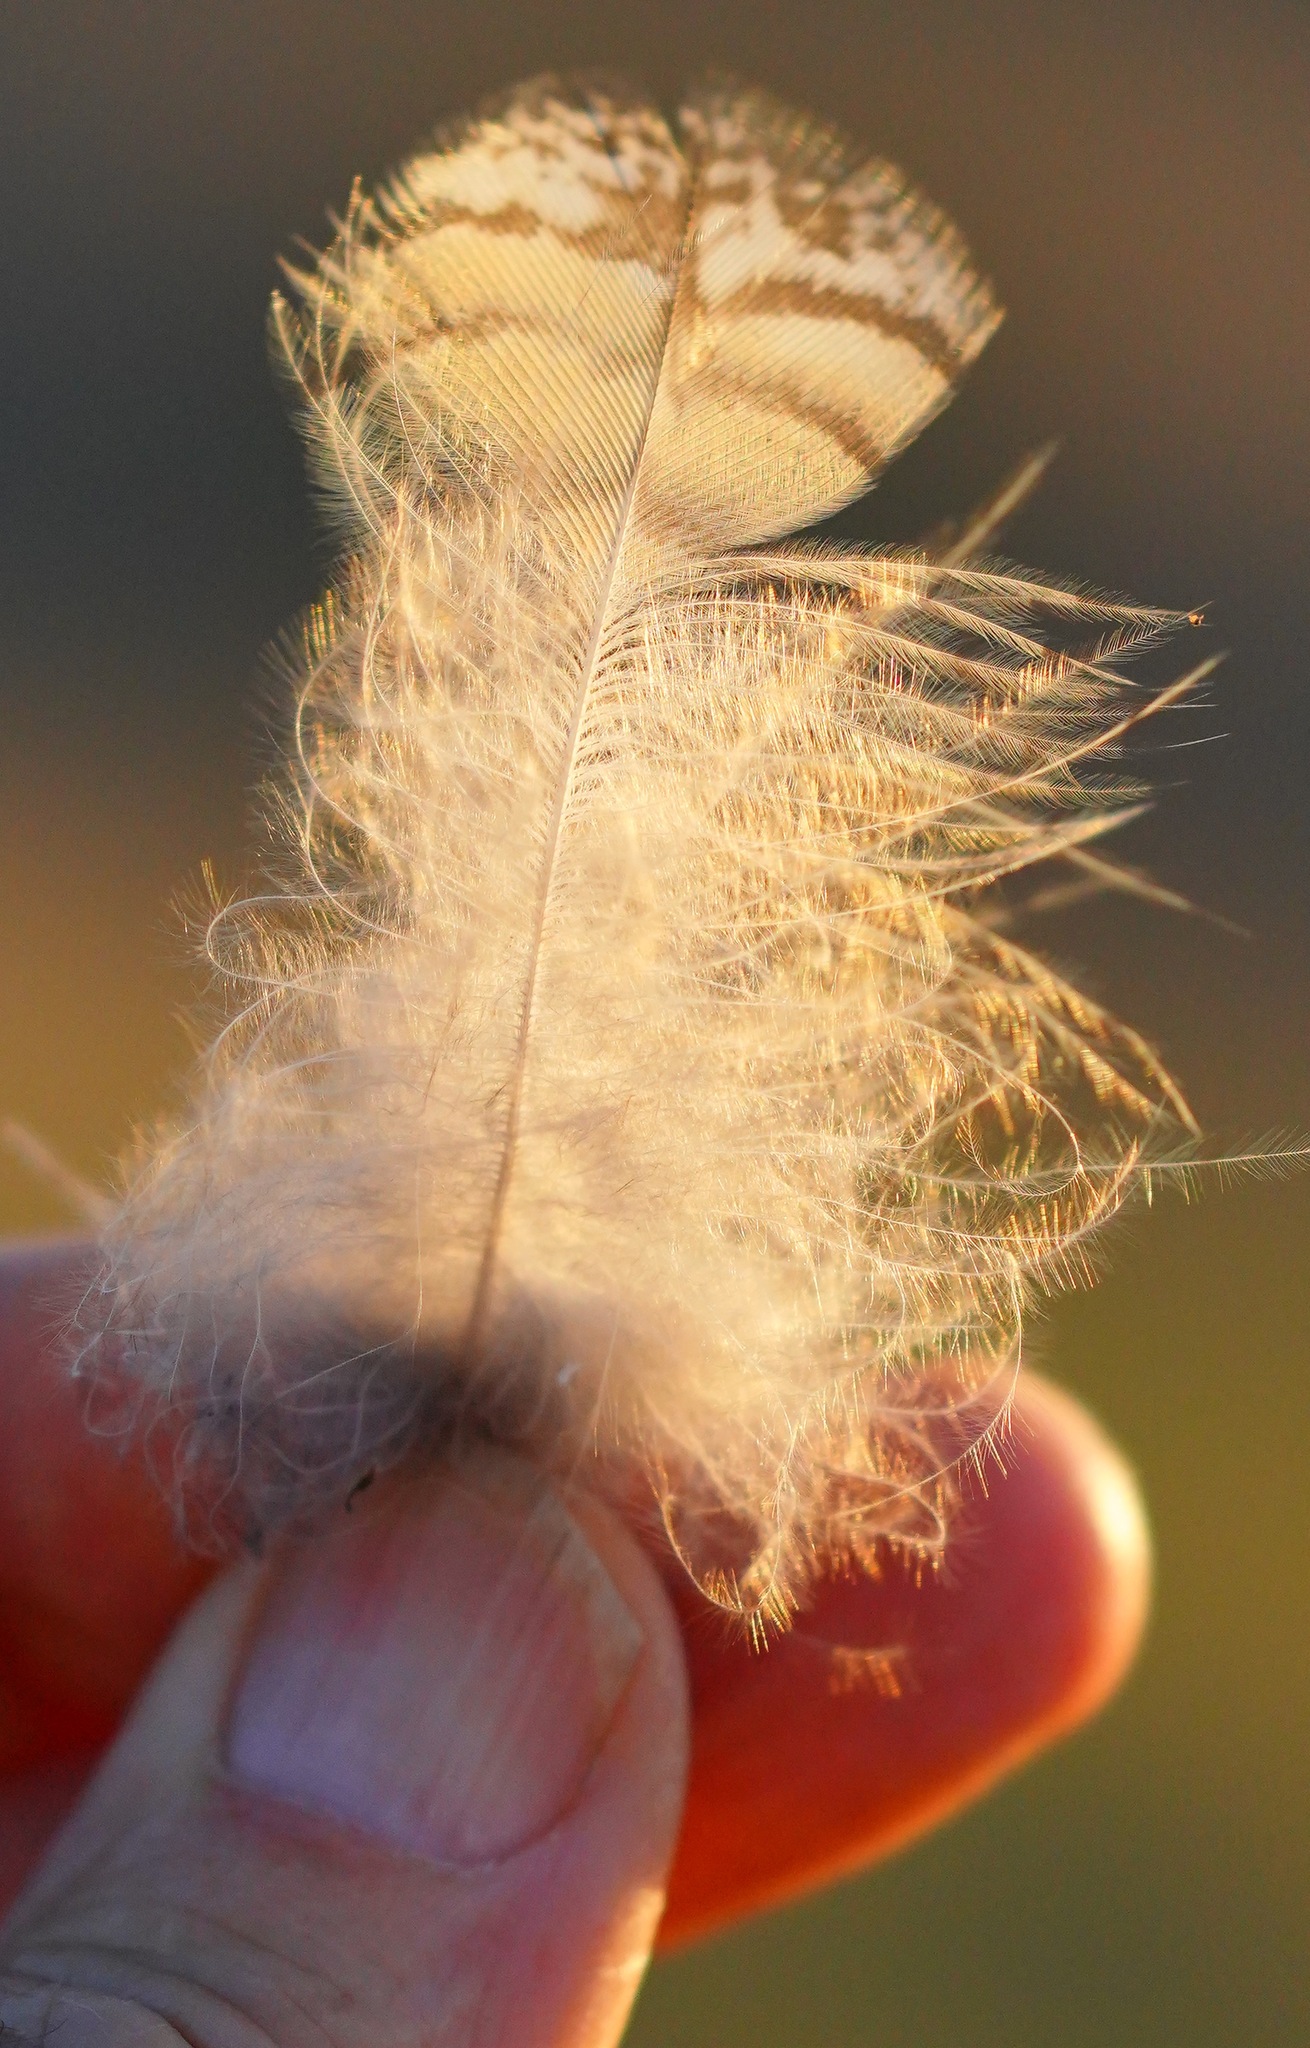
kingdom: Animalia
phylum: Chordata
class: Aves
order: Strigiformes
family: Strigidae
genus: Bubo
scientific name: Bubo virginianus
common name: Great horned owl
